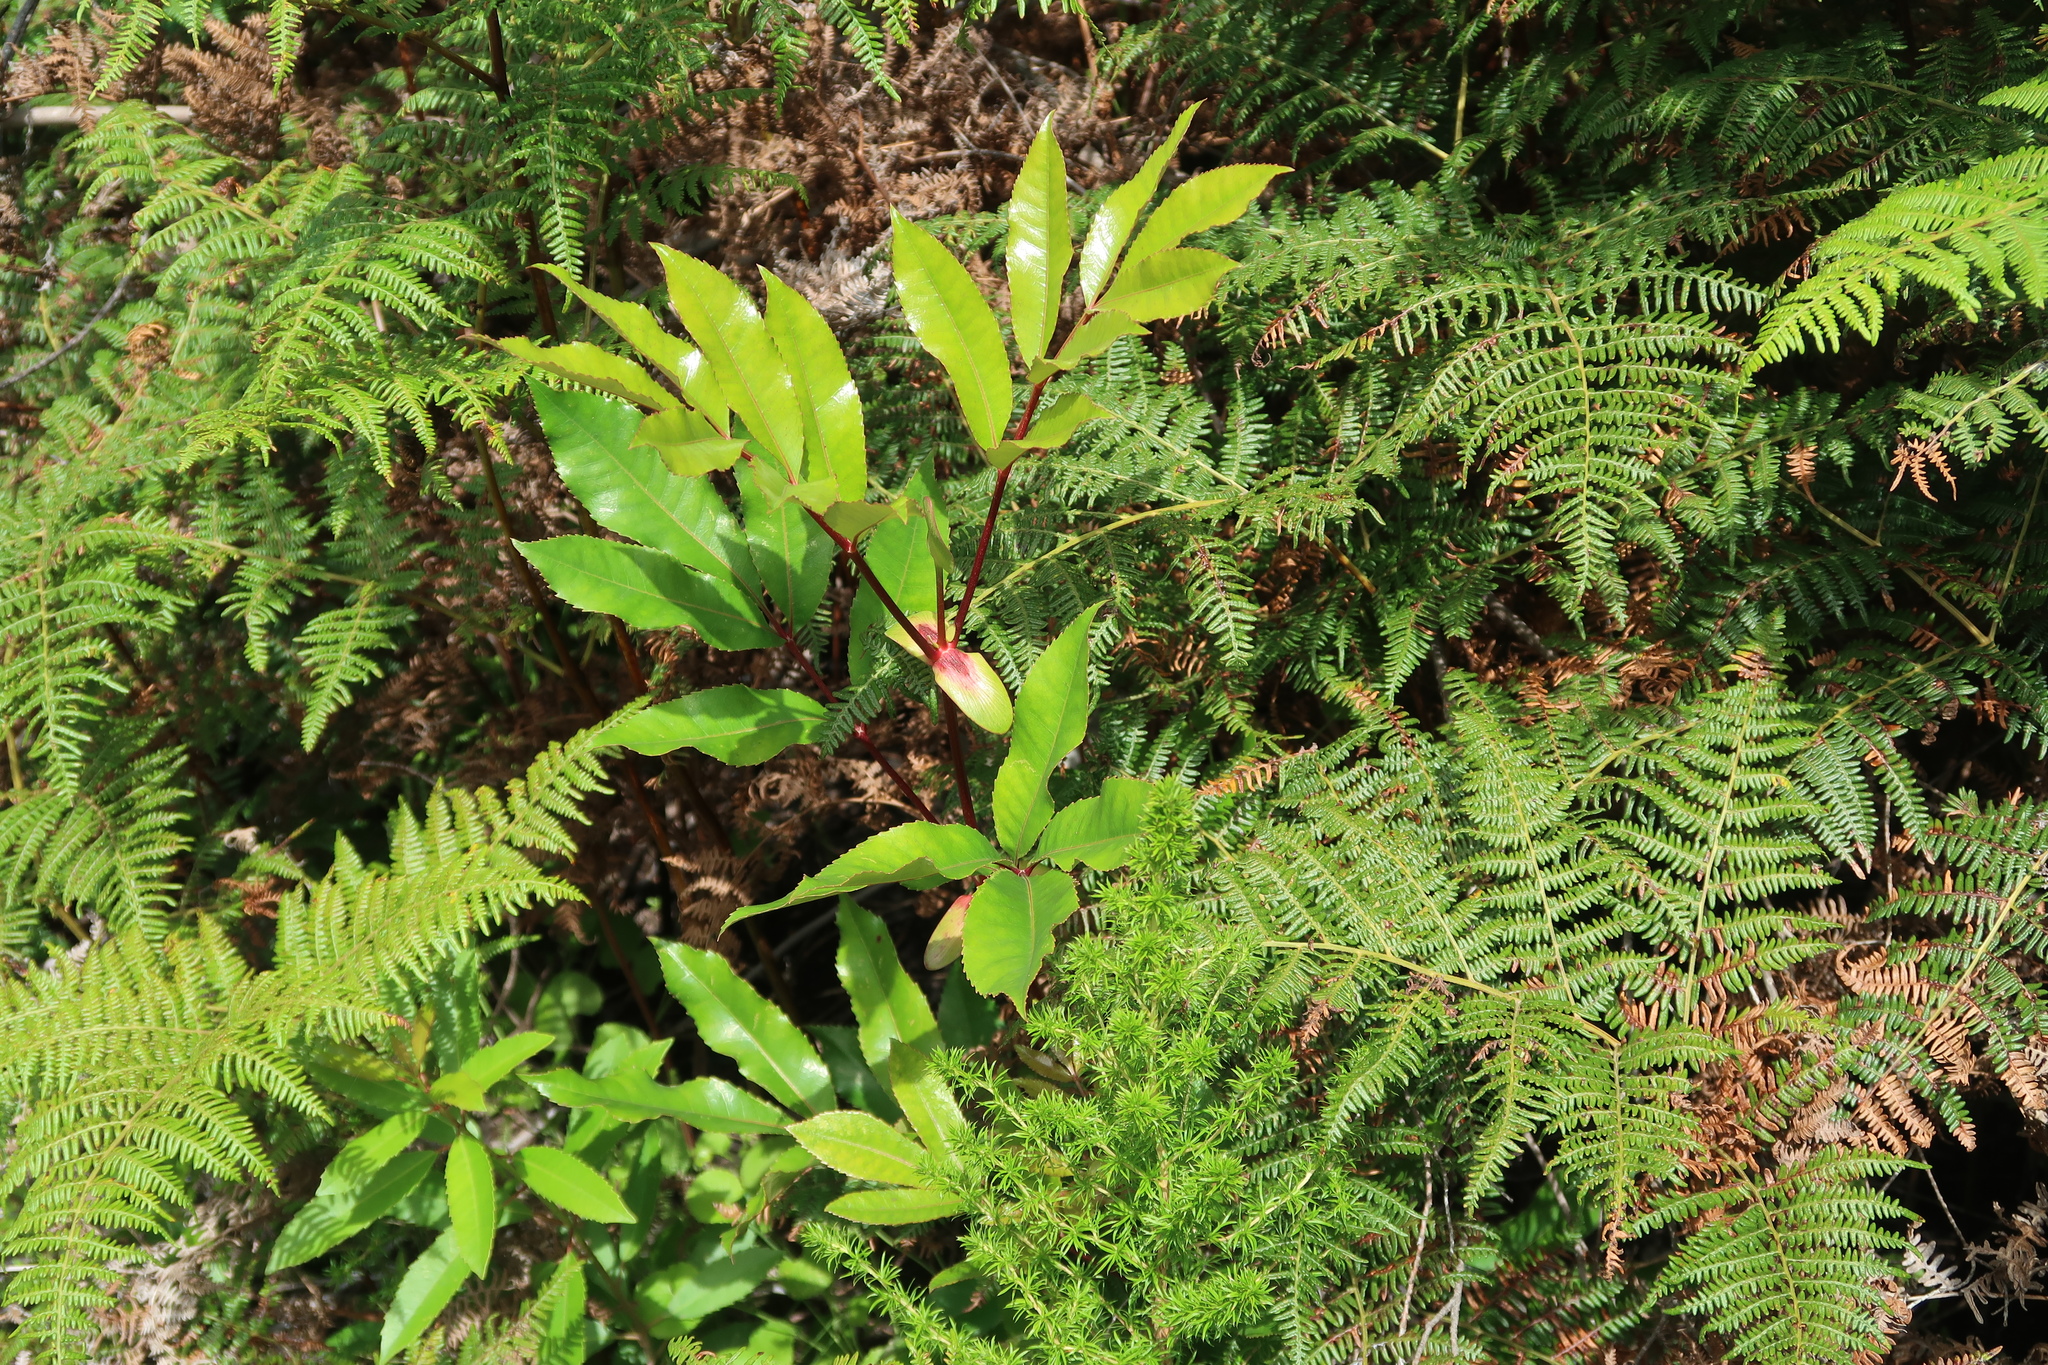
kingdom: Plantae
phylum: Tracheophyta
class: Magnoliopsida
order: Oxalidales
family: Cunoniaceae
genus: Cunonia
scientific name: Cunonia capensis
